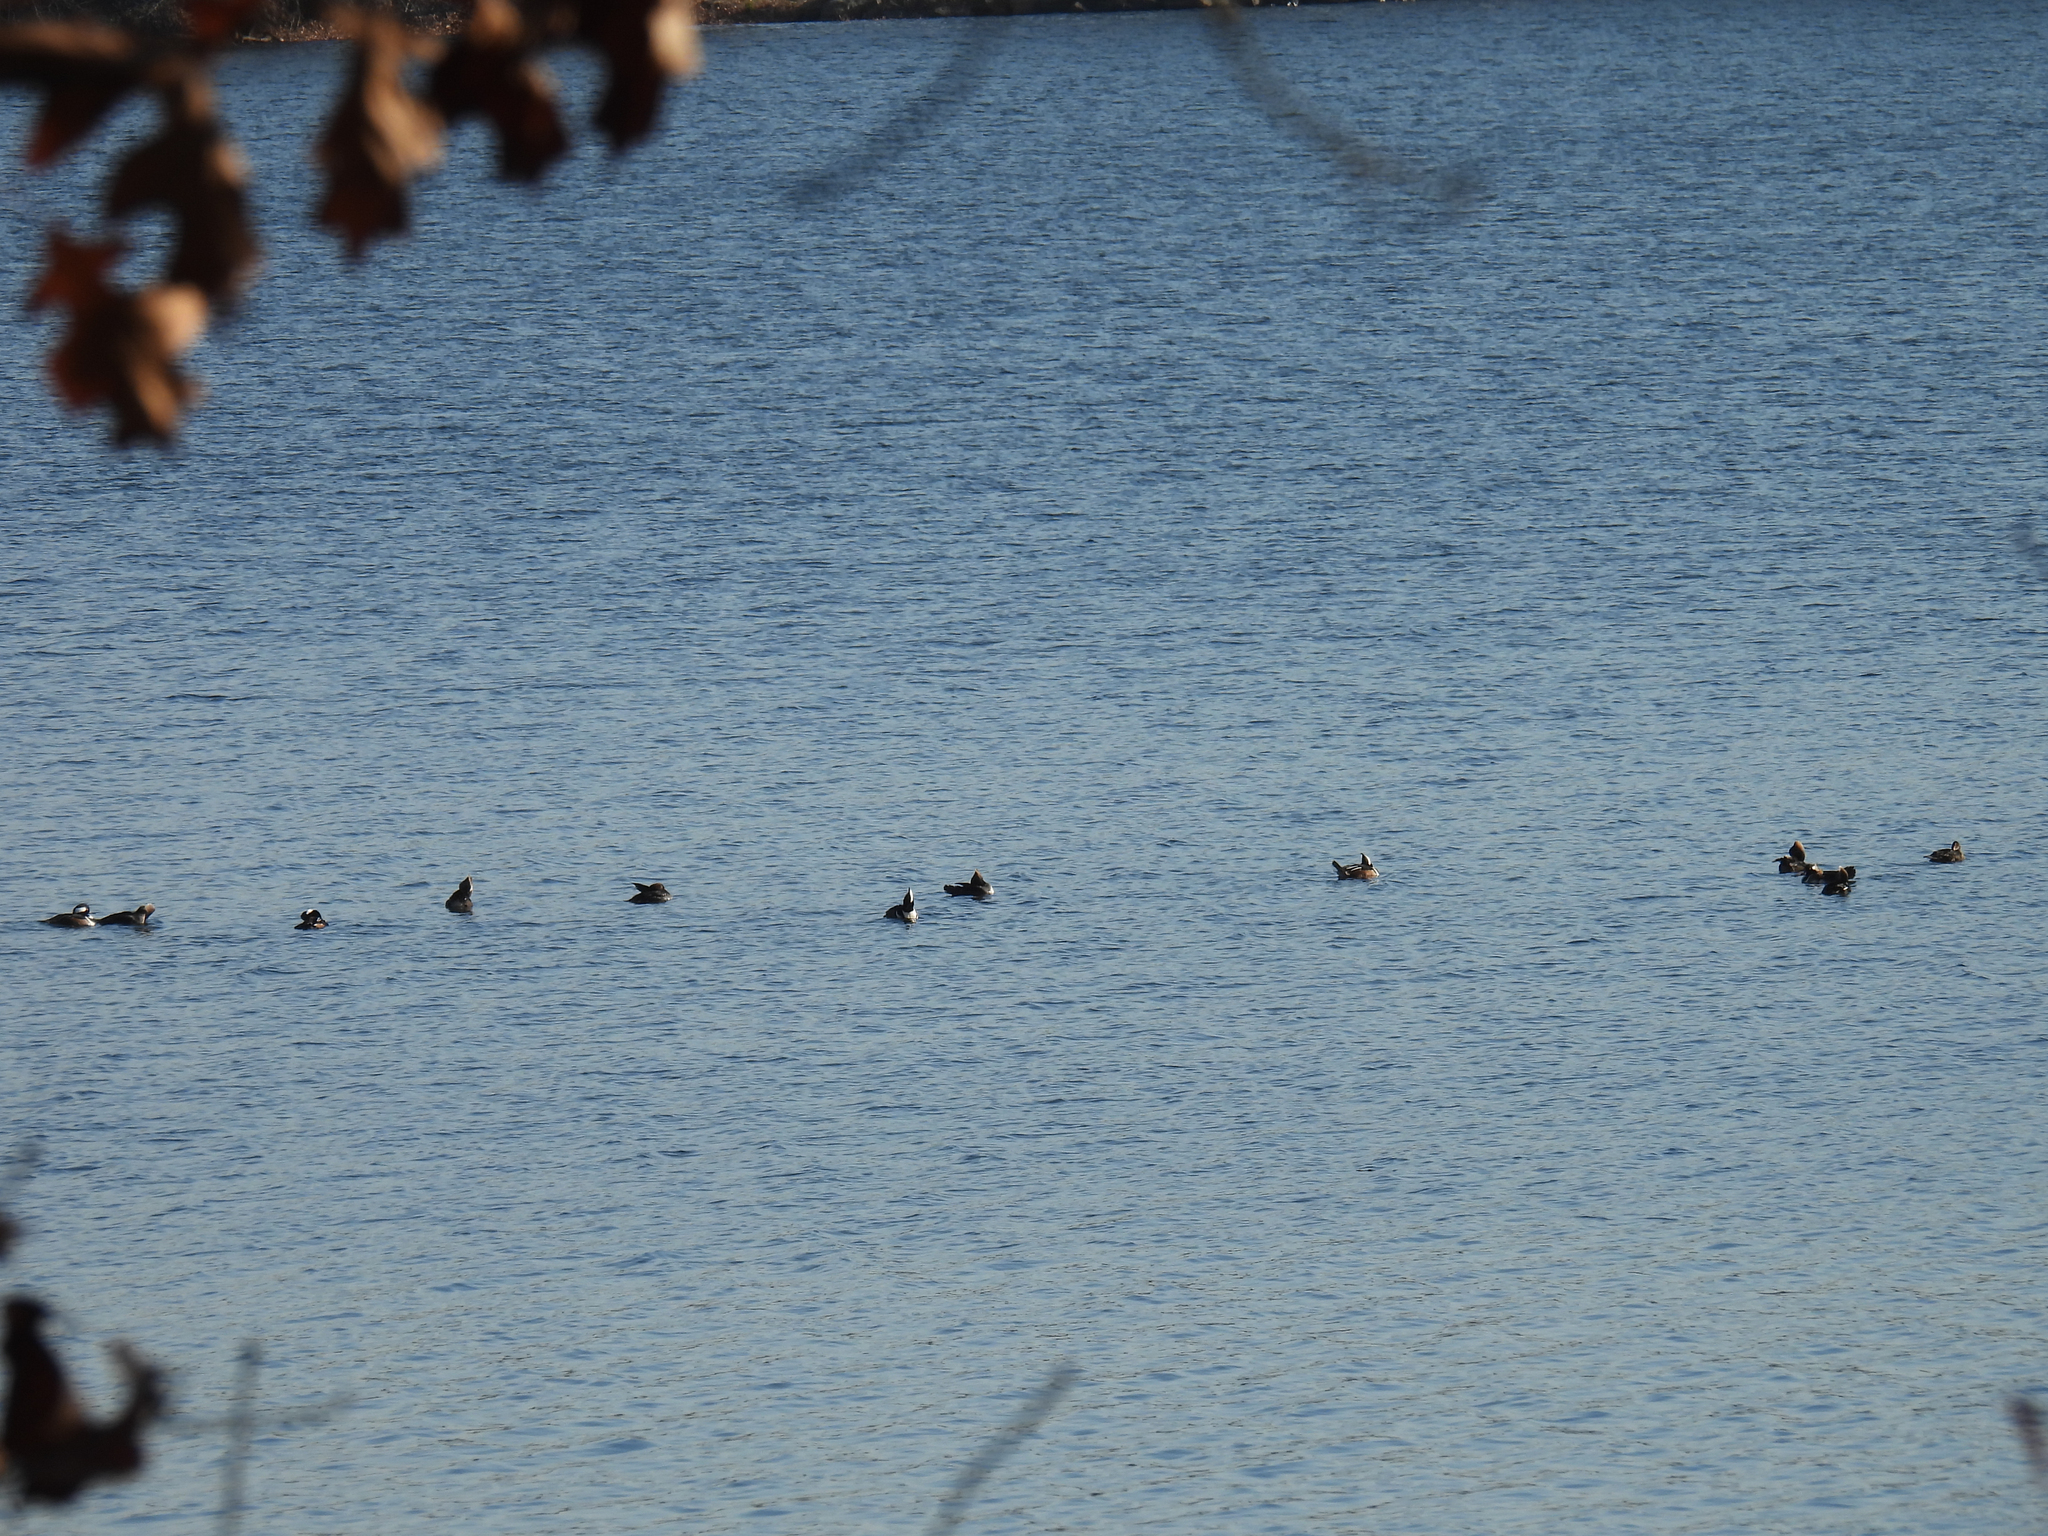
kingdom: Animalia
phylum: Chordata
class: Aves
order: Anseriformes
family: Anatidae
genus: Lophodytes
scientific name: Lophodytes cucullatus
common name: Hooded merganser
